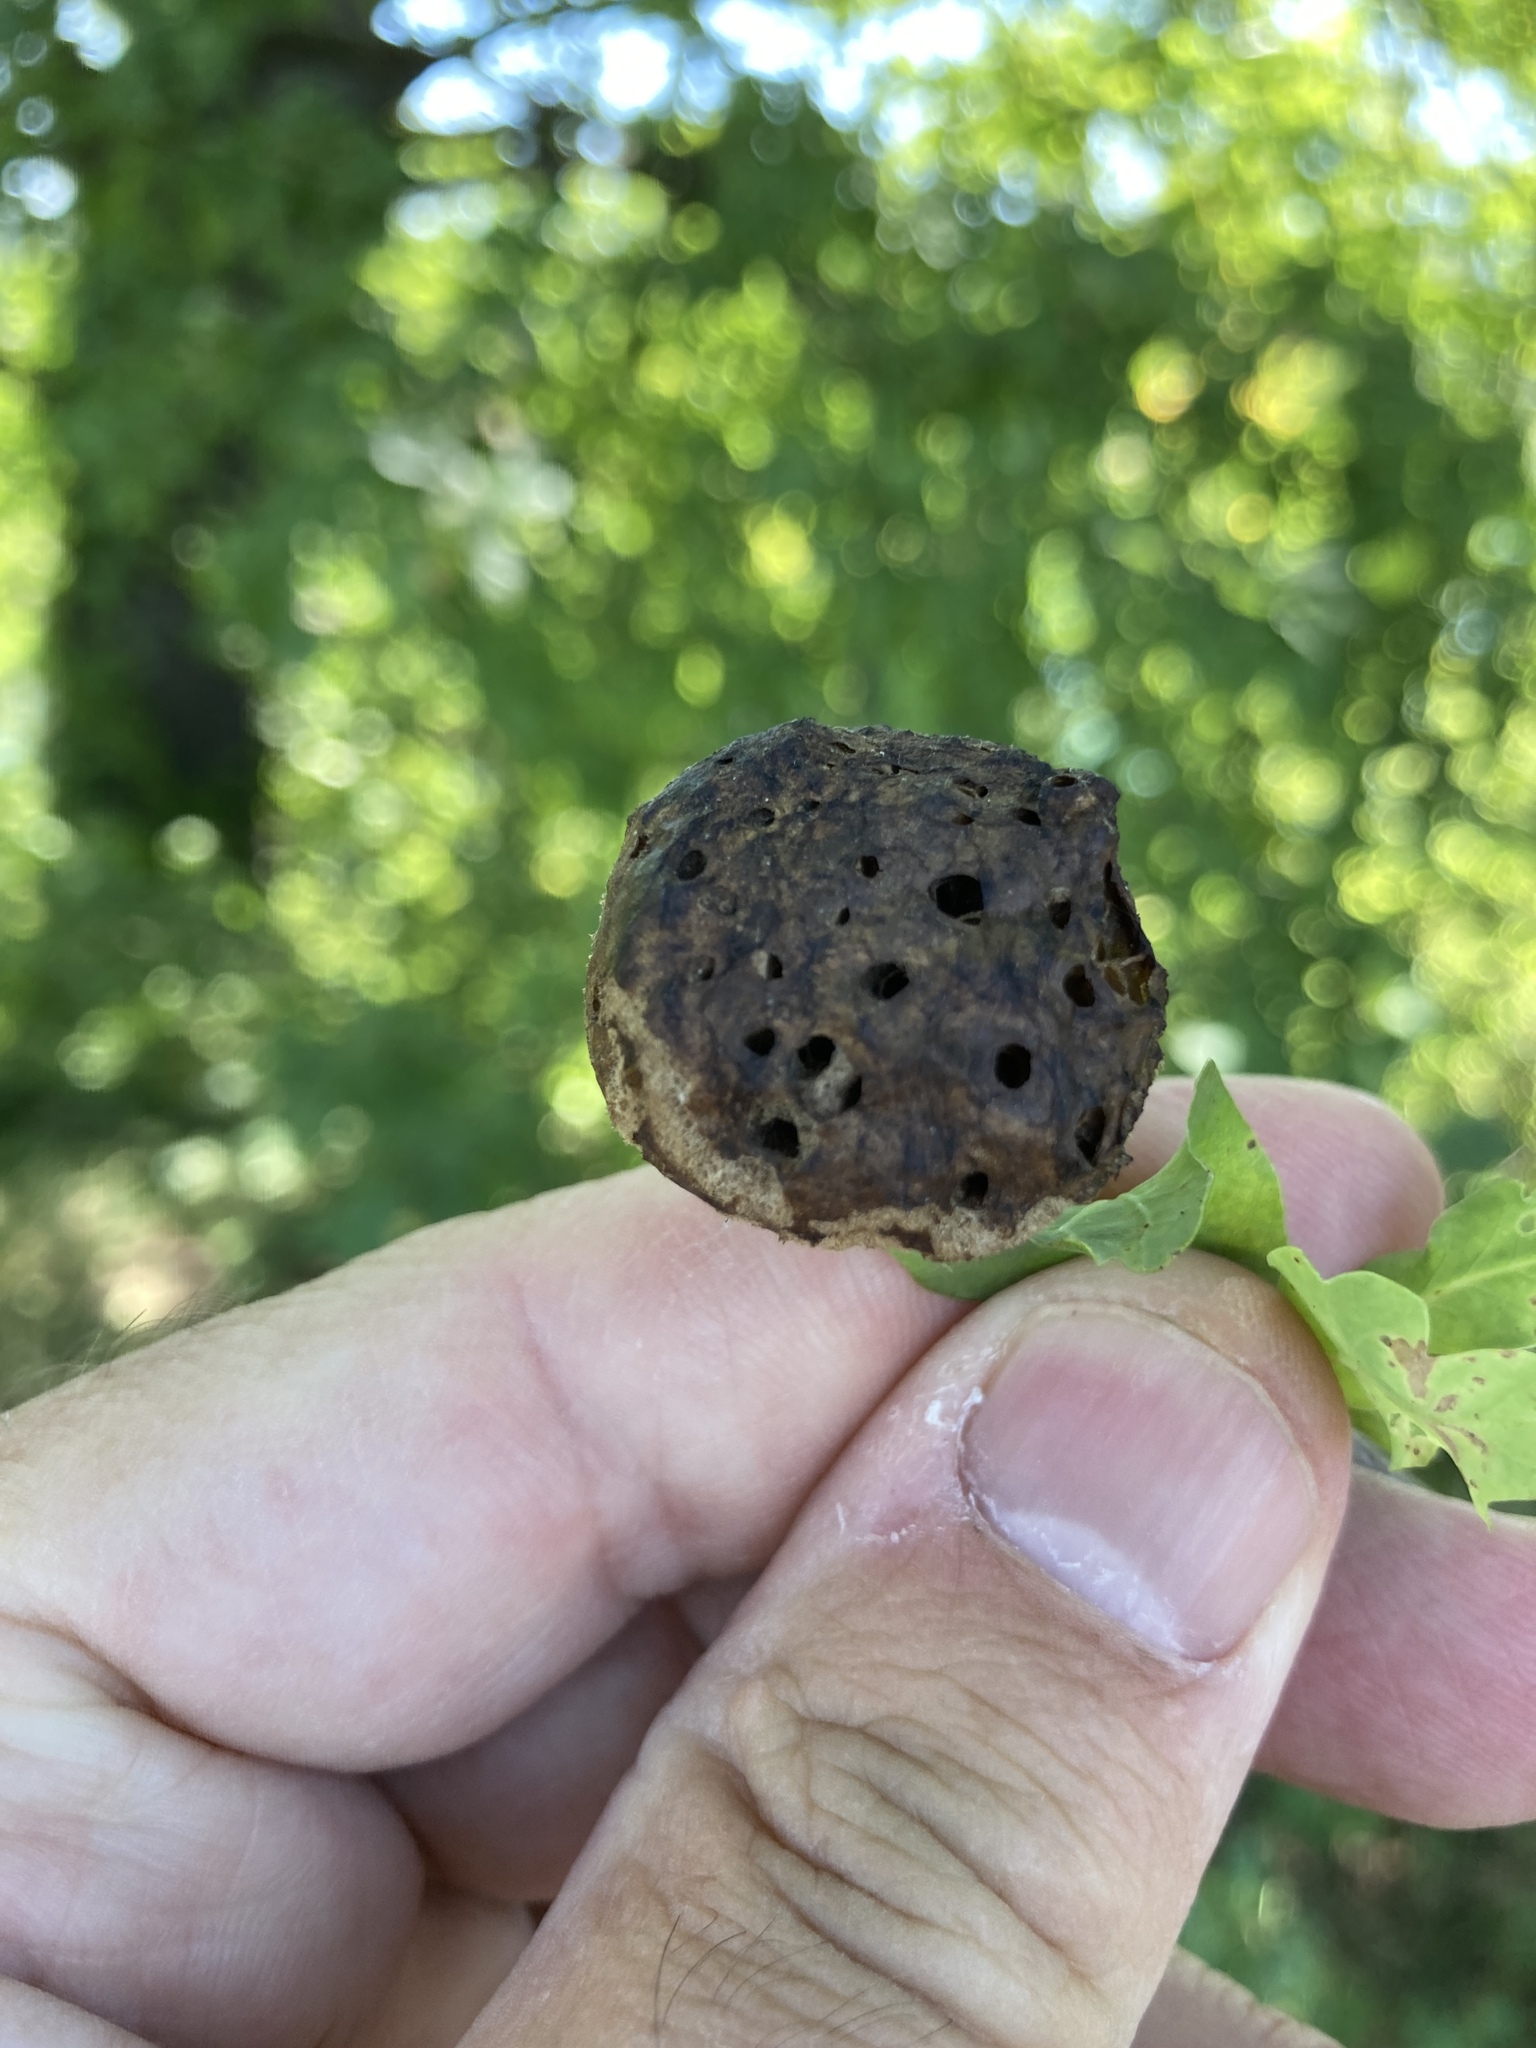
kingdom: Animalia
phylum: Arthropoda
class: Insecta
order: Hymenoptera
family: Cynipidae
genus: Biorhiza
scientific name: Biorhiza pallida
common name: Oak apple
